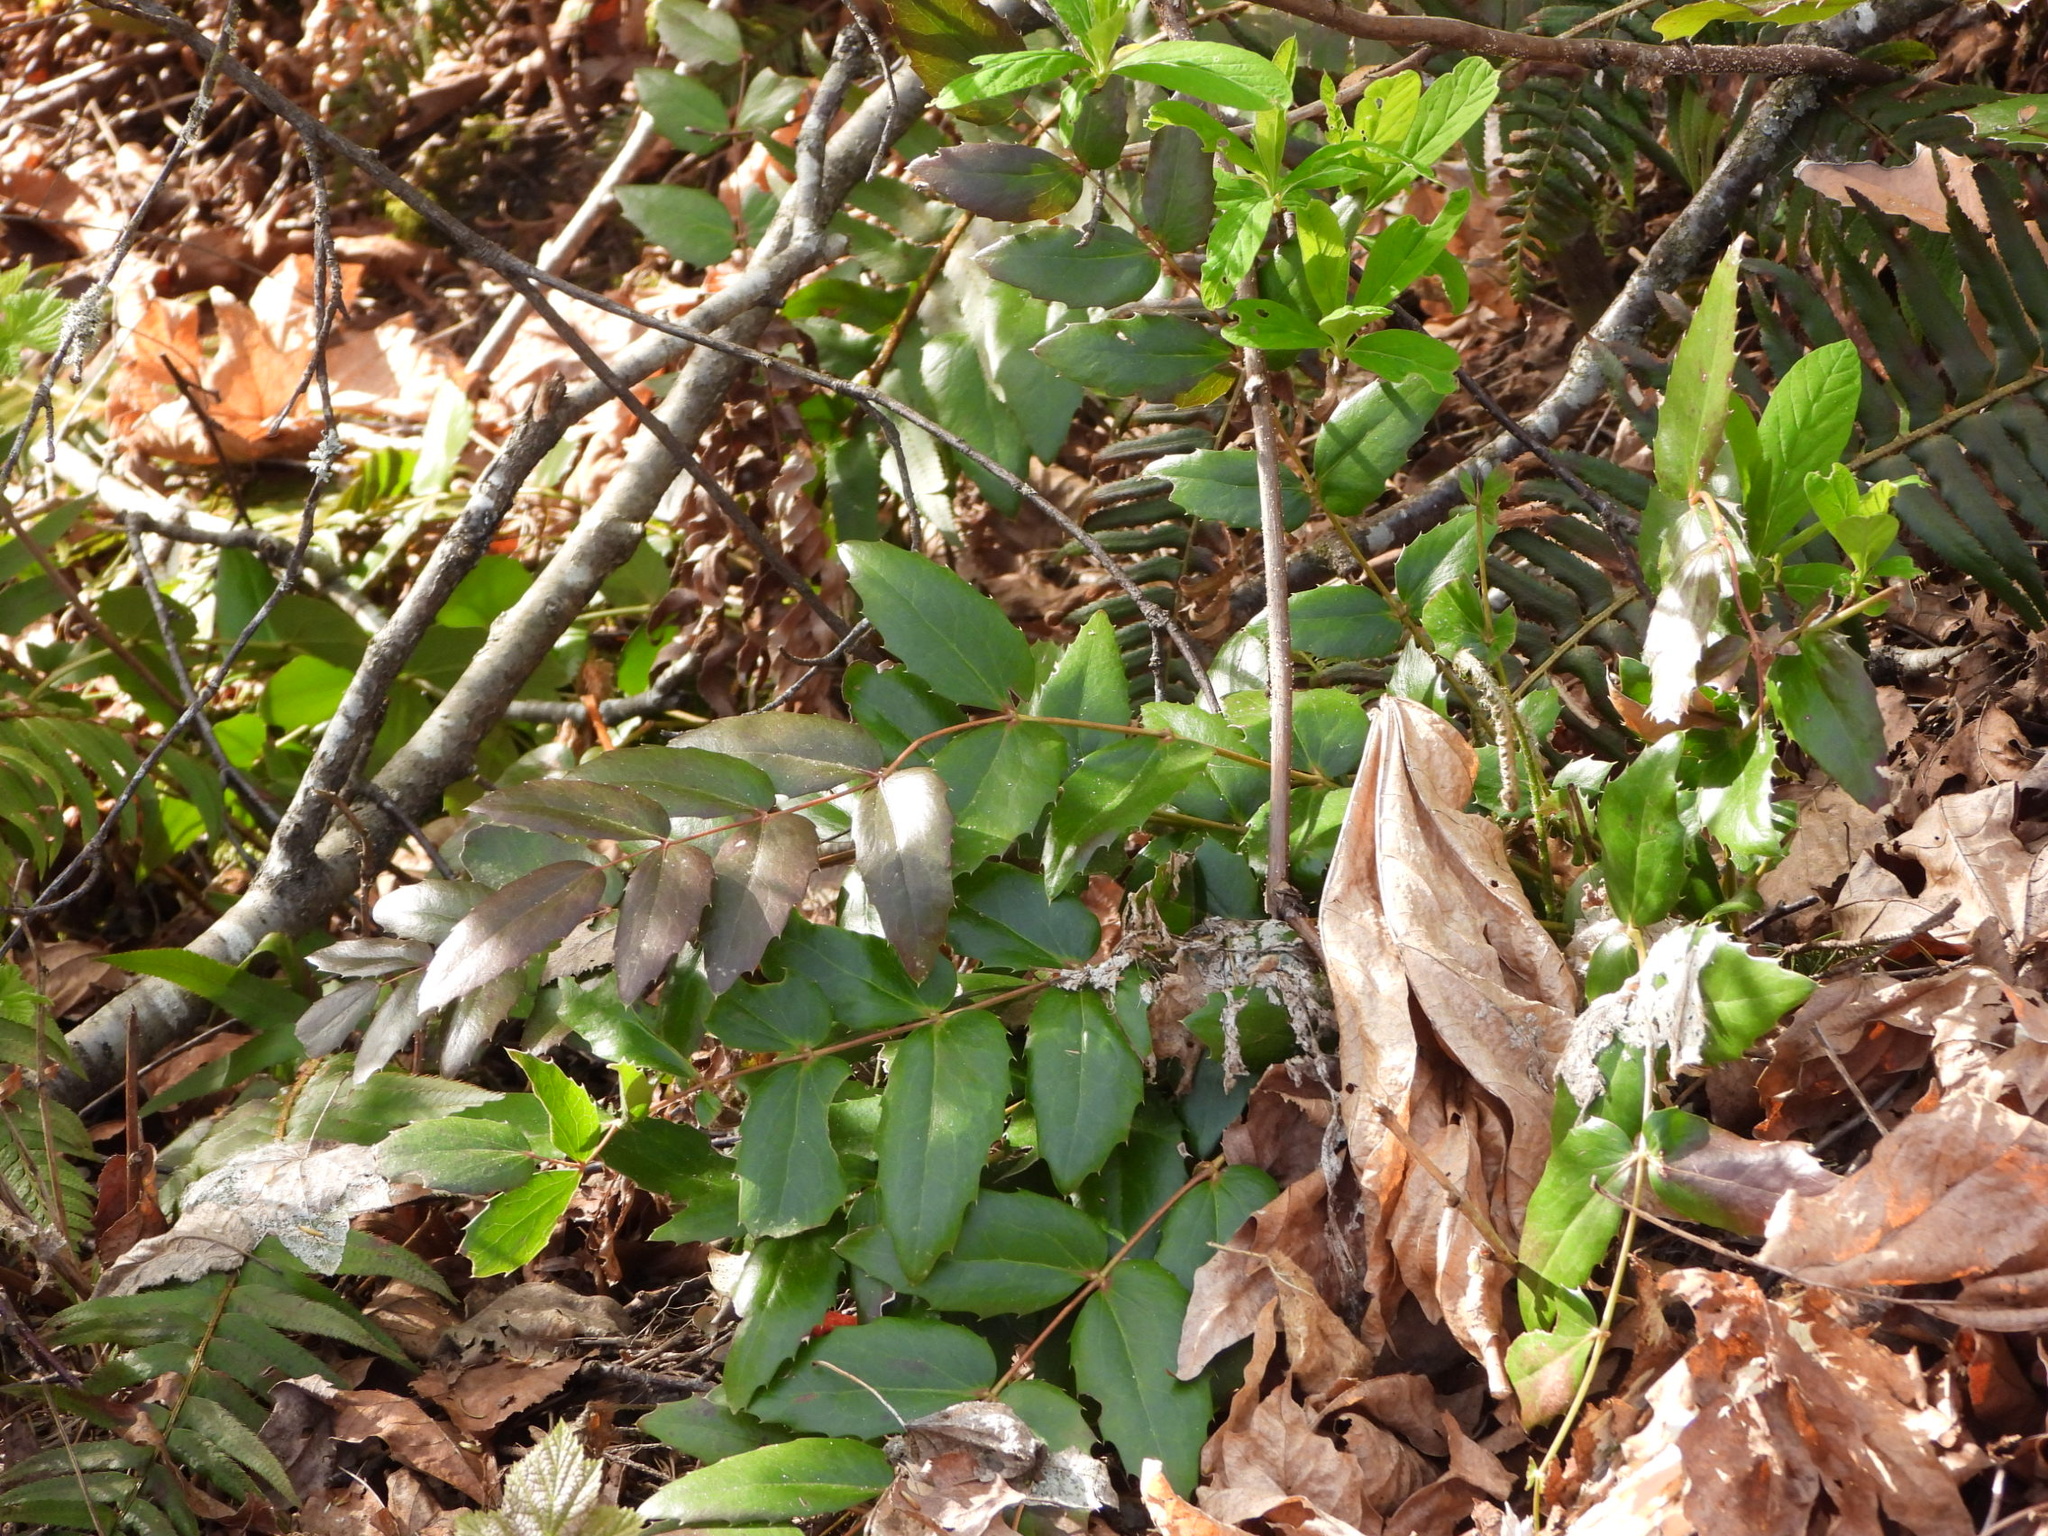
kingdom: Plantae
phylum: Tracheophyta
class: Magnoliopsida
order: Ranunculales
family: Berberidaceae
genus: Mahonia
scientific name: Mahonia nervosa
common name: Cascade oregon-grape
